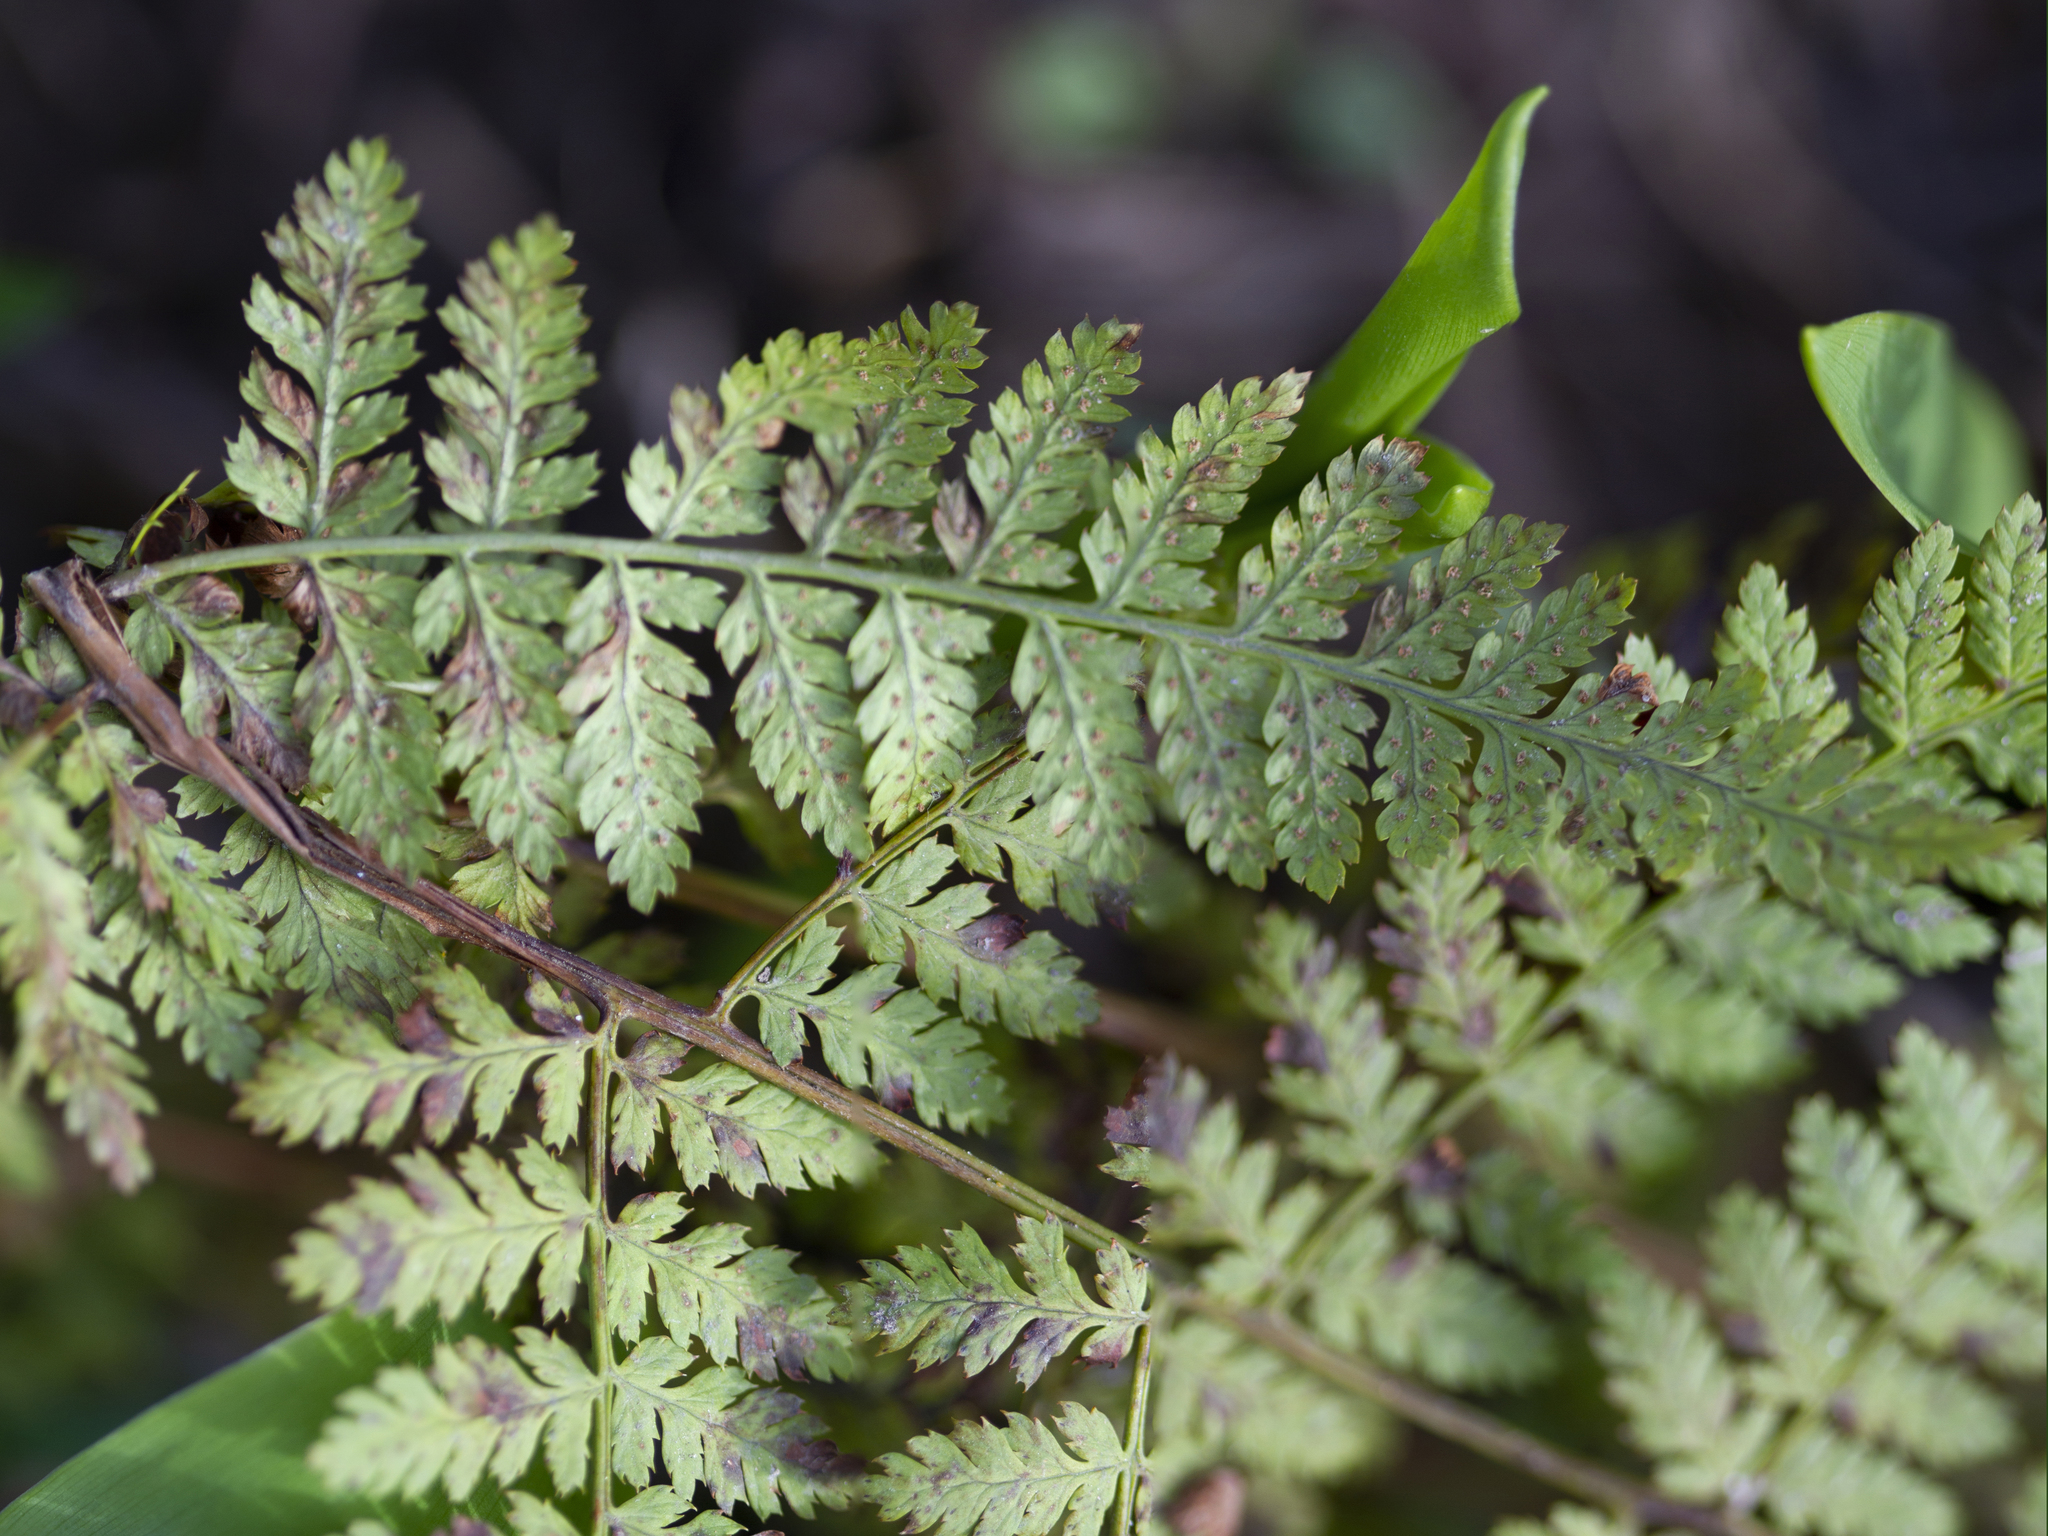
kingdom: Plantae
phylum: Tracheophyta
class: Polypodiopsida
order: Polypodiales
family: Dryopteridaceae
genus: Dryopteris
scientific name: Dryopteris intermedia
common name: Evergreen wood fern
